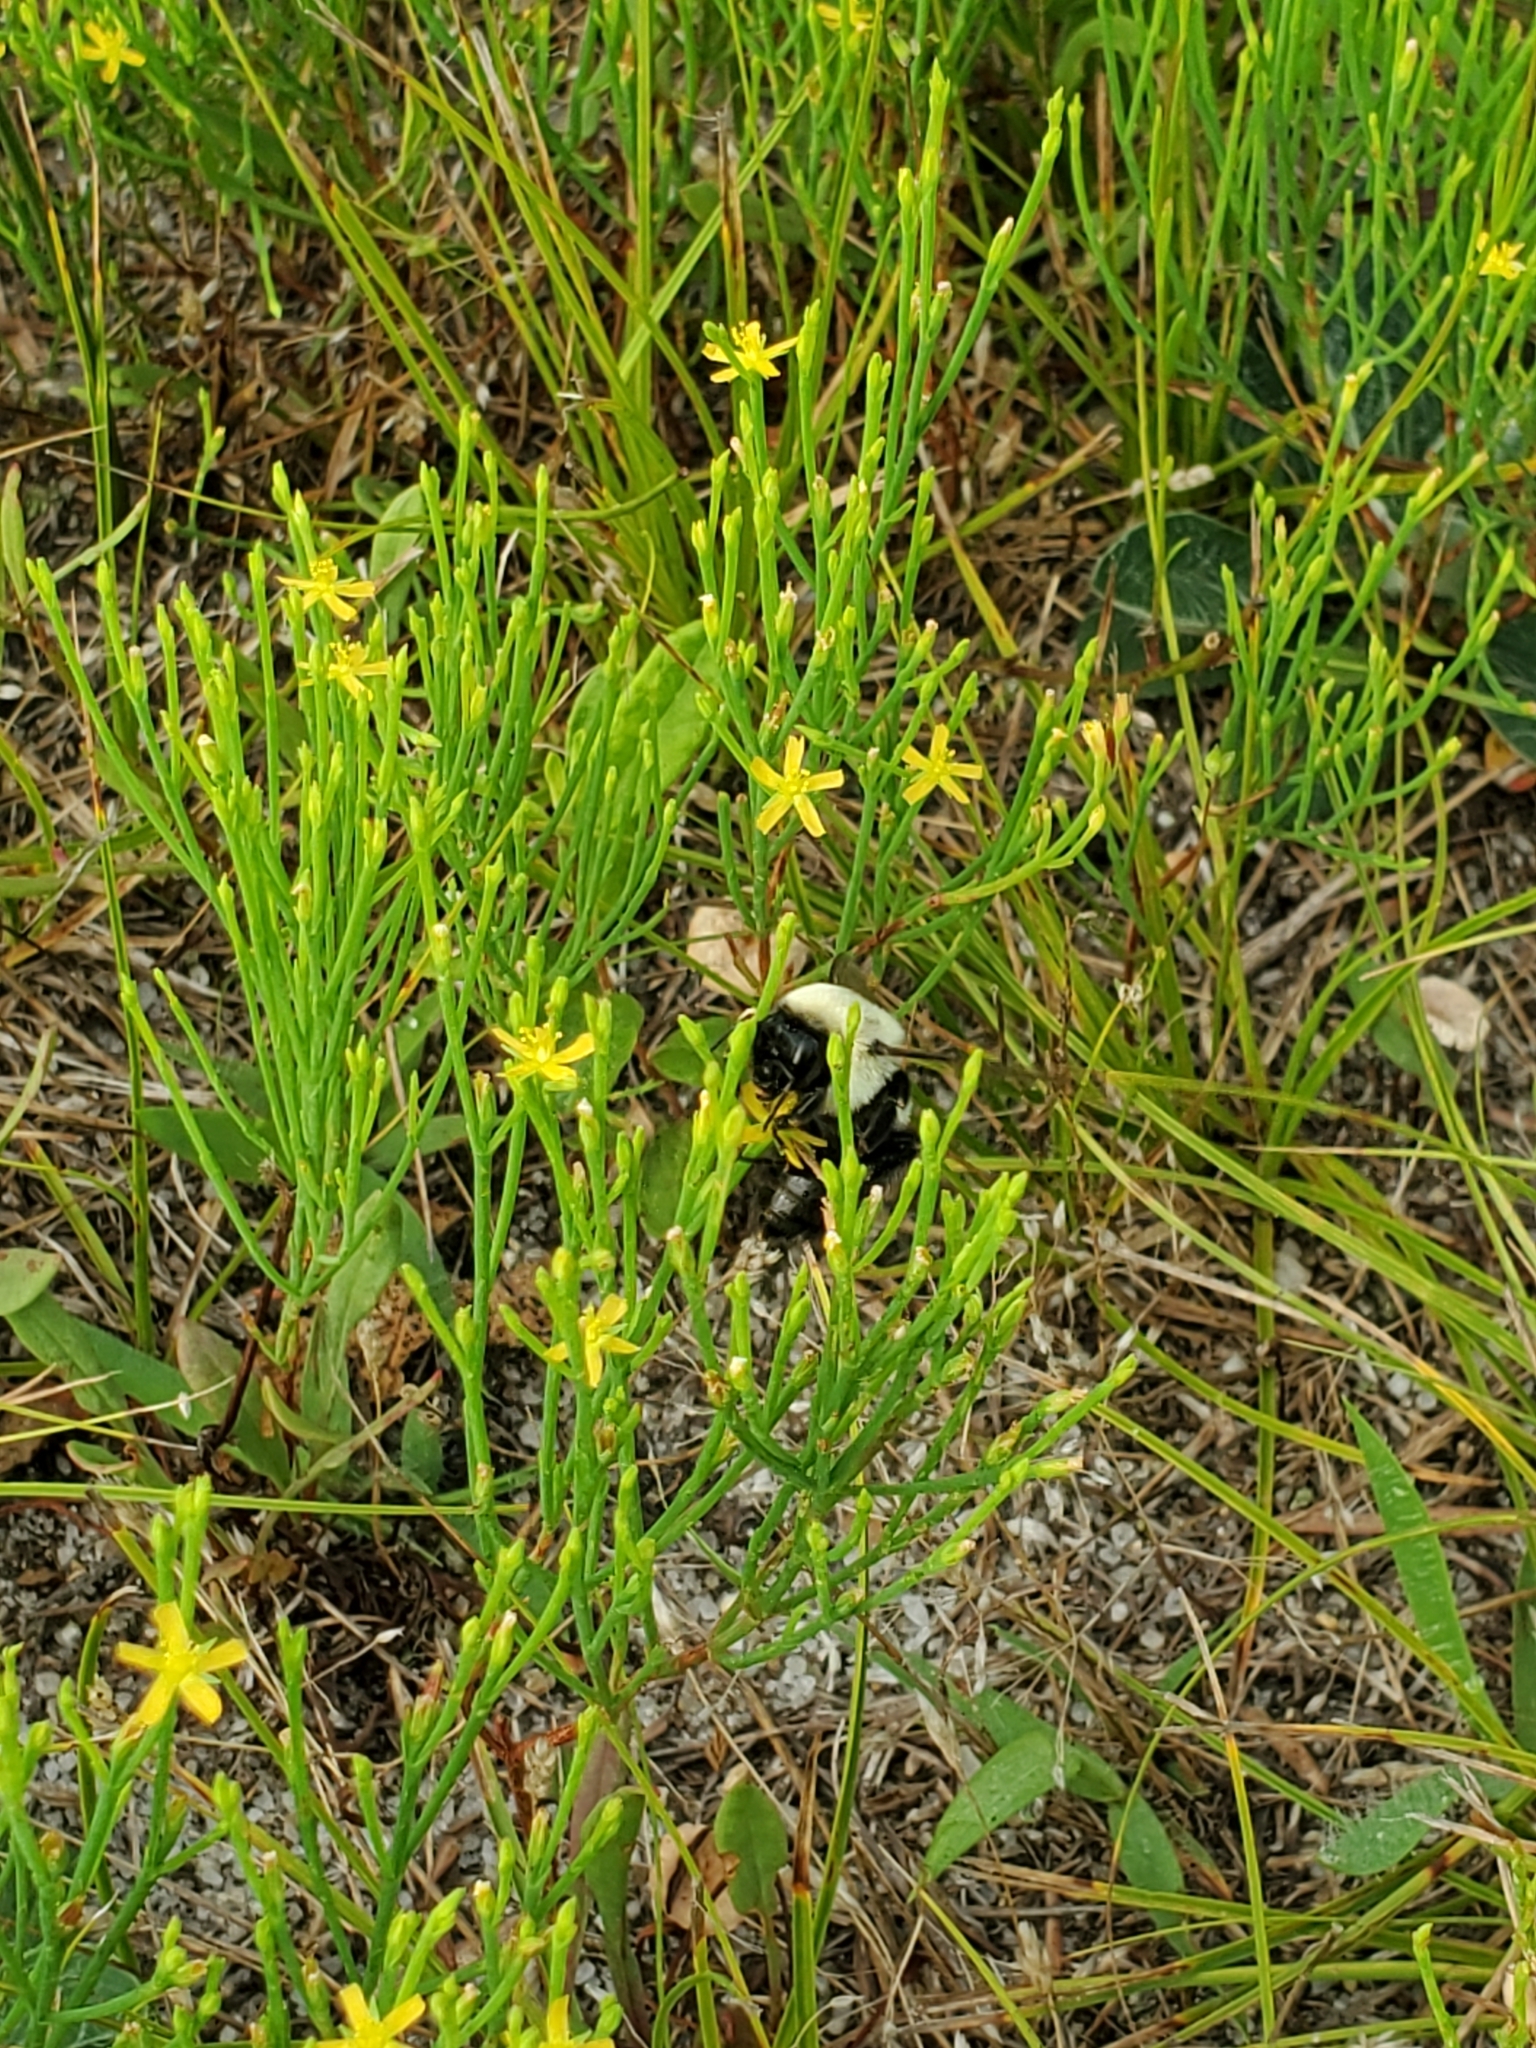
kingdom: Animalia
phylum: Arthropoda
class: Insecta
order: Hymenoptera
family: Apidae
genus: Bombus
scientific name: Bombus impatiens
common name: Common eastern bumble bee
